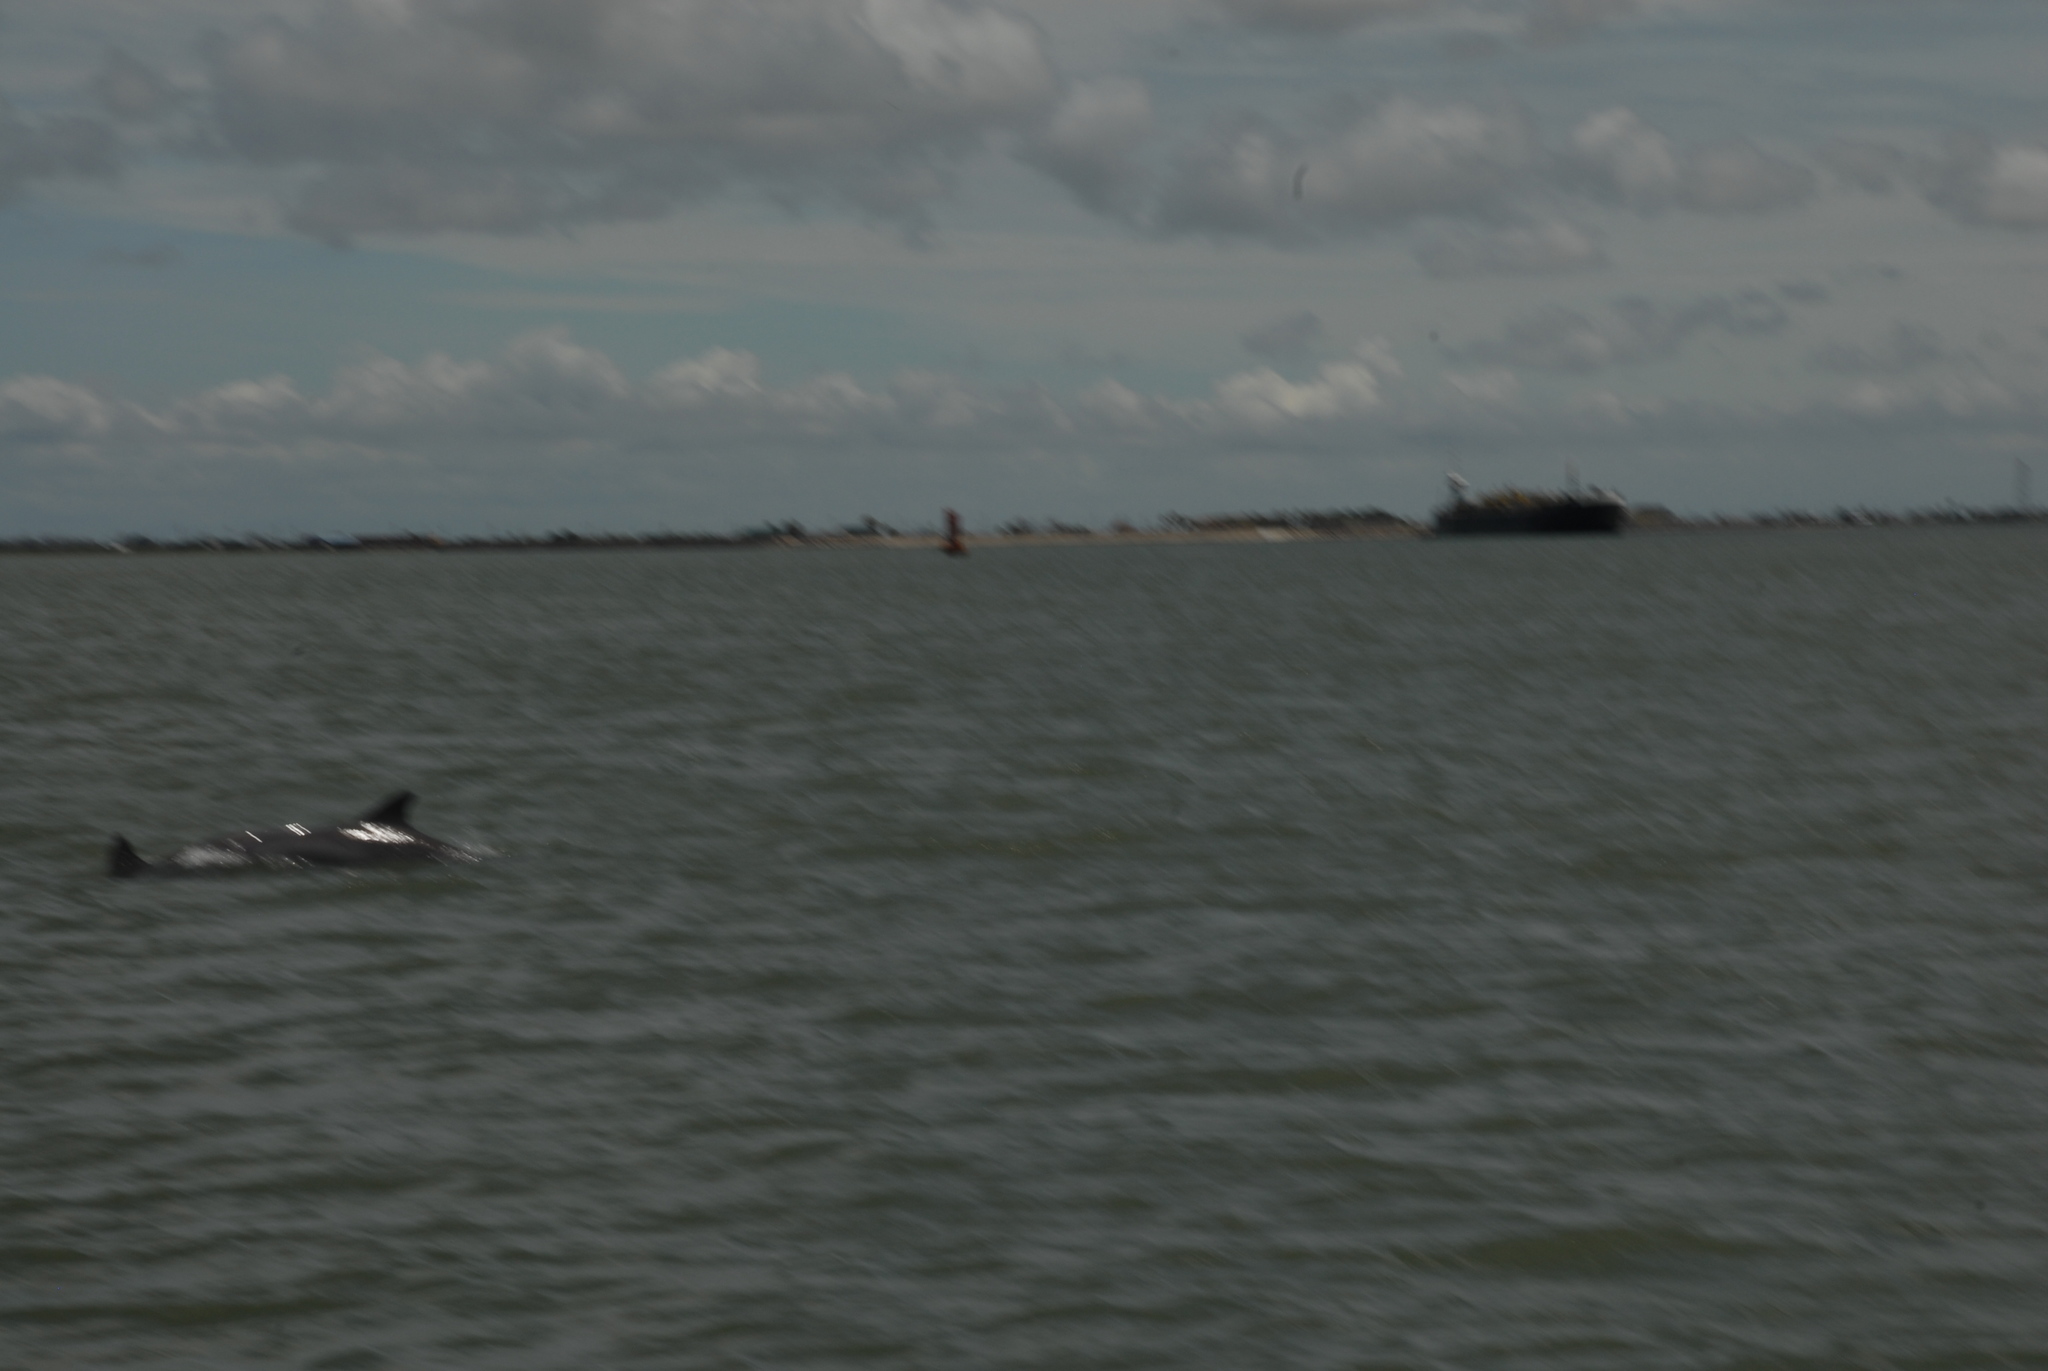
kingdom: Animalia
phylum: Chordata
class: Mammalia
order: Cetacea
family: Delphinidae
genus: Tursiops
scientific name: Tursiops truncatus
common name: Bottlenose dolphin
